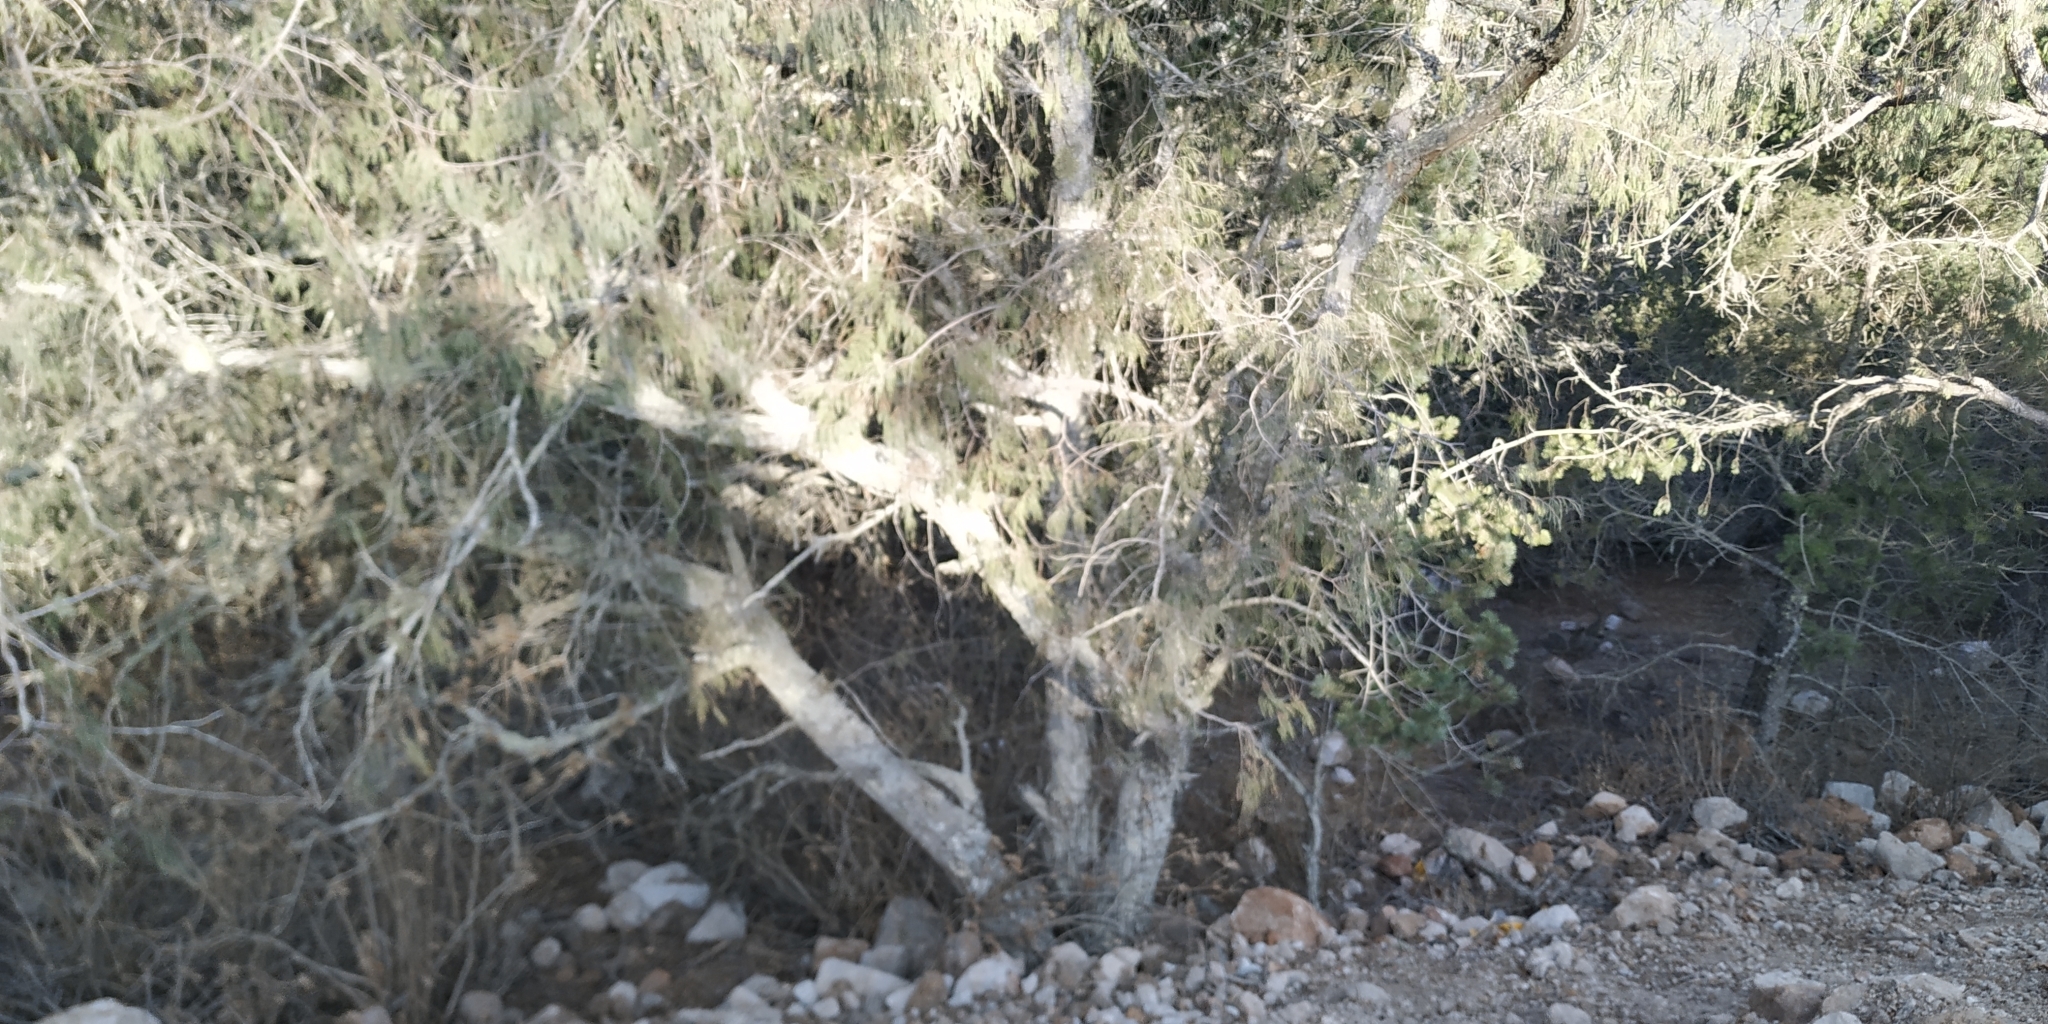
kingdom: Plantae
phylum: Tracheophyta
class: Pinopsida
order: Pinales
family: Cupressaceae
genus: Juniperus
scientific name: Juniperus flaccida
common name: Drooping juniper
